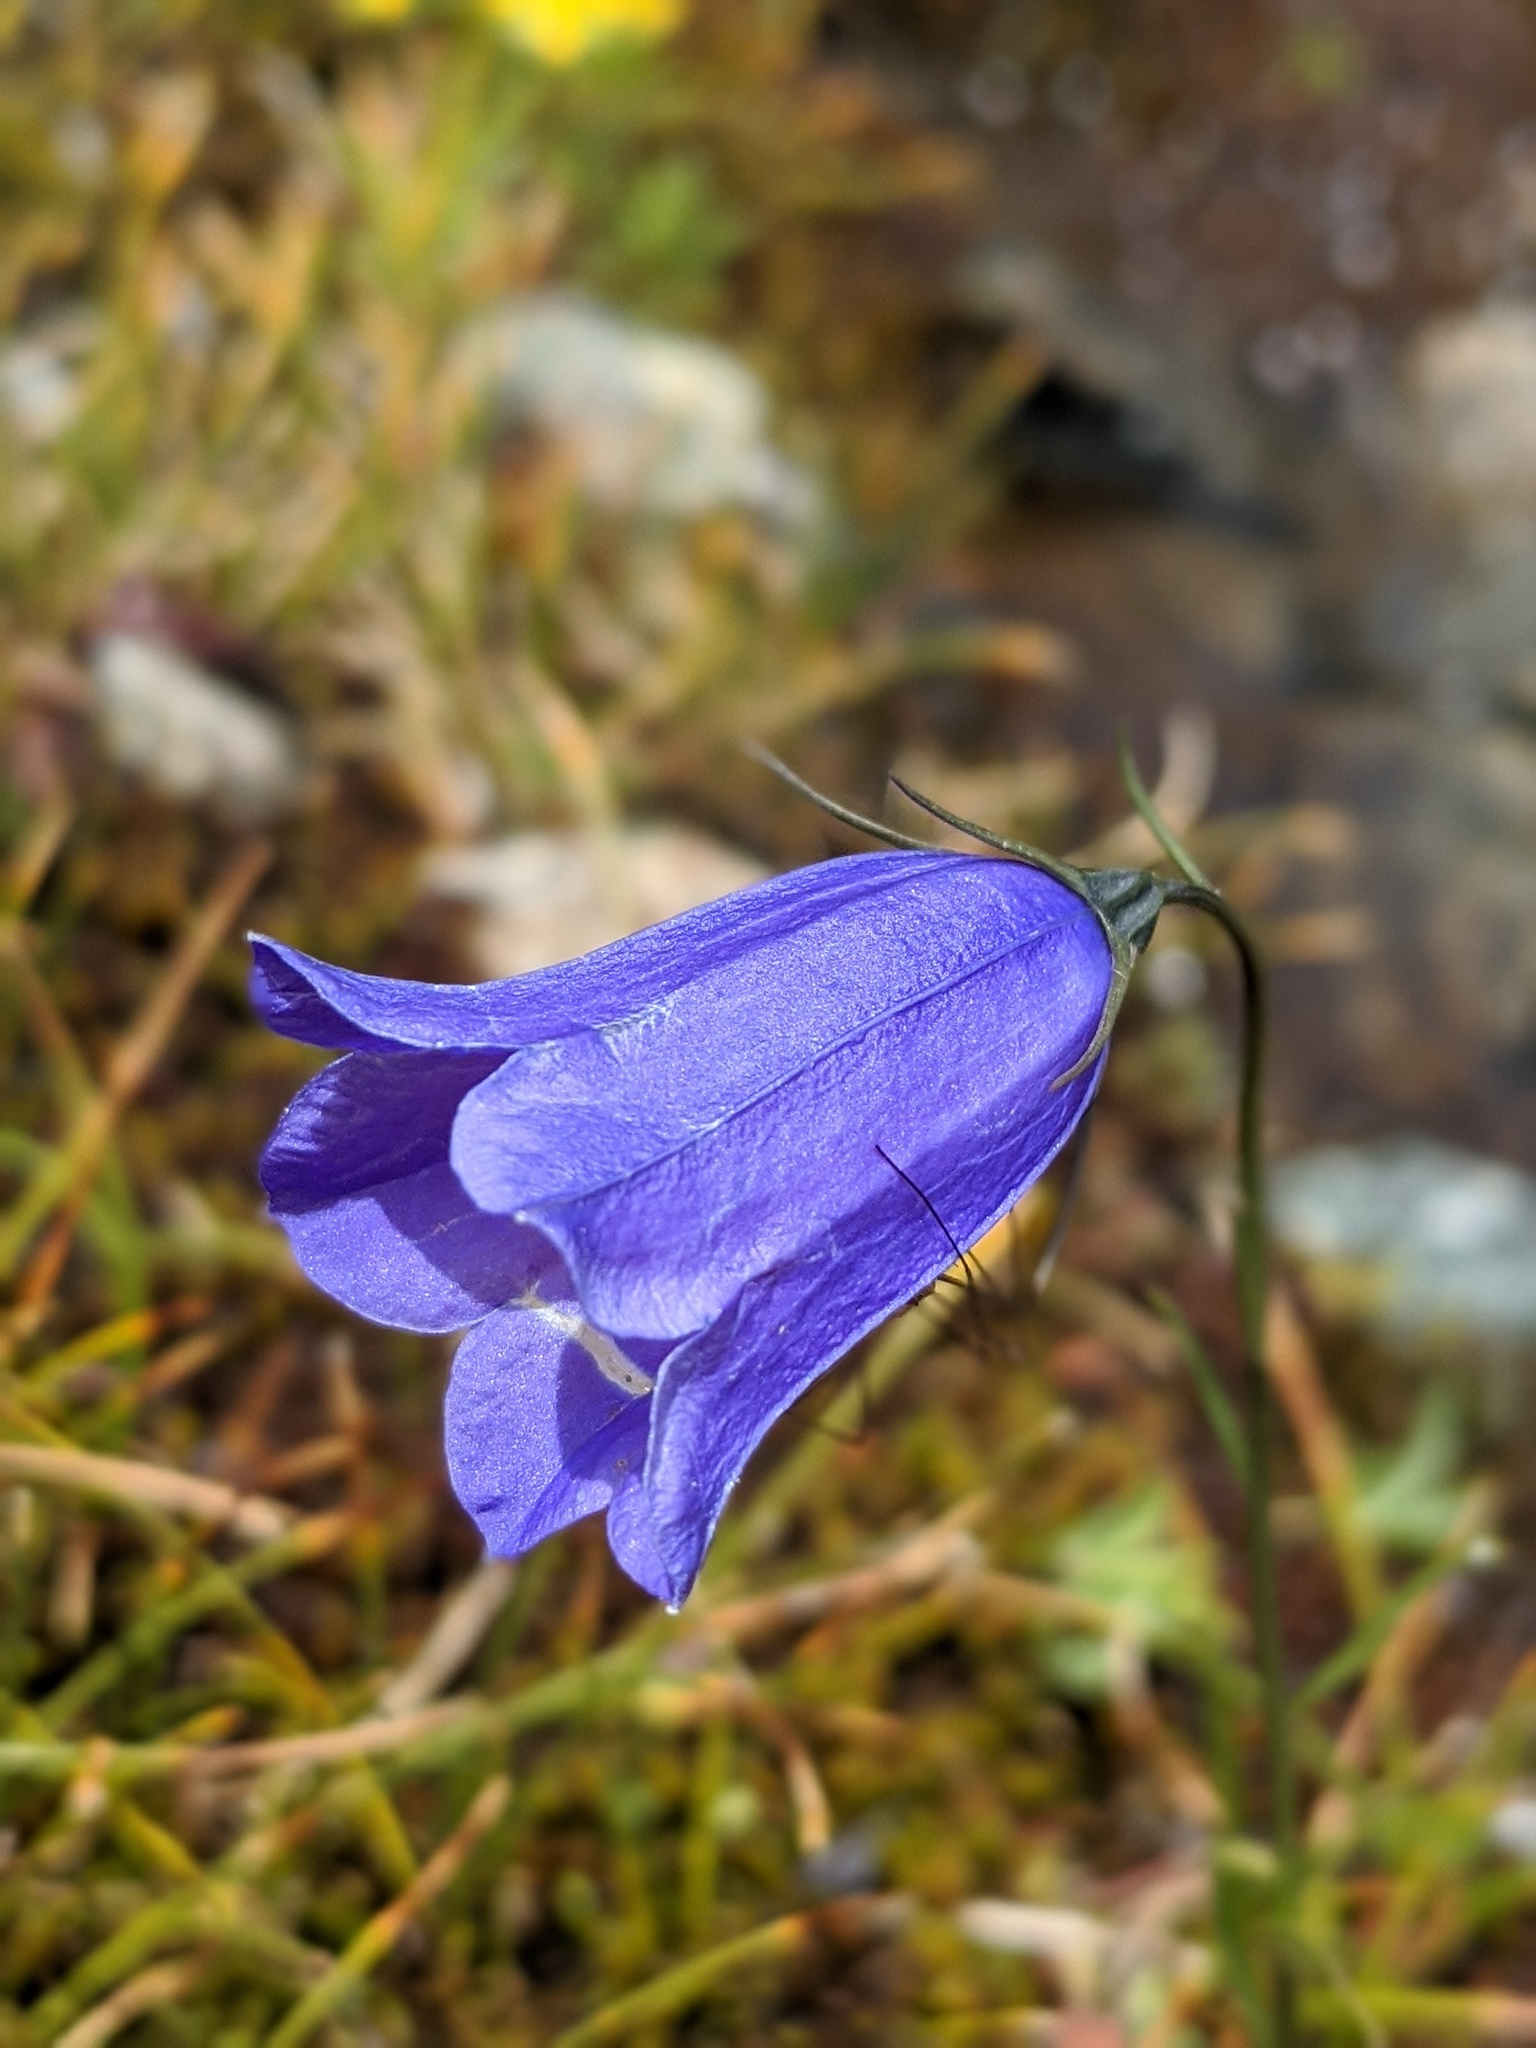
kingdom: Plantae
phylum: Tracheophyta
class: Magnoliopsida
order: Asterales
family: Campanulaceae
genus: Campanula
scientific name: Campanula scheuchzeri
